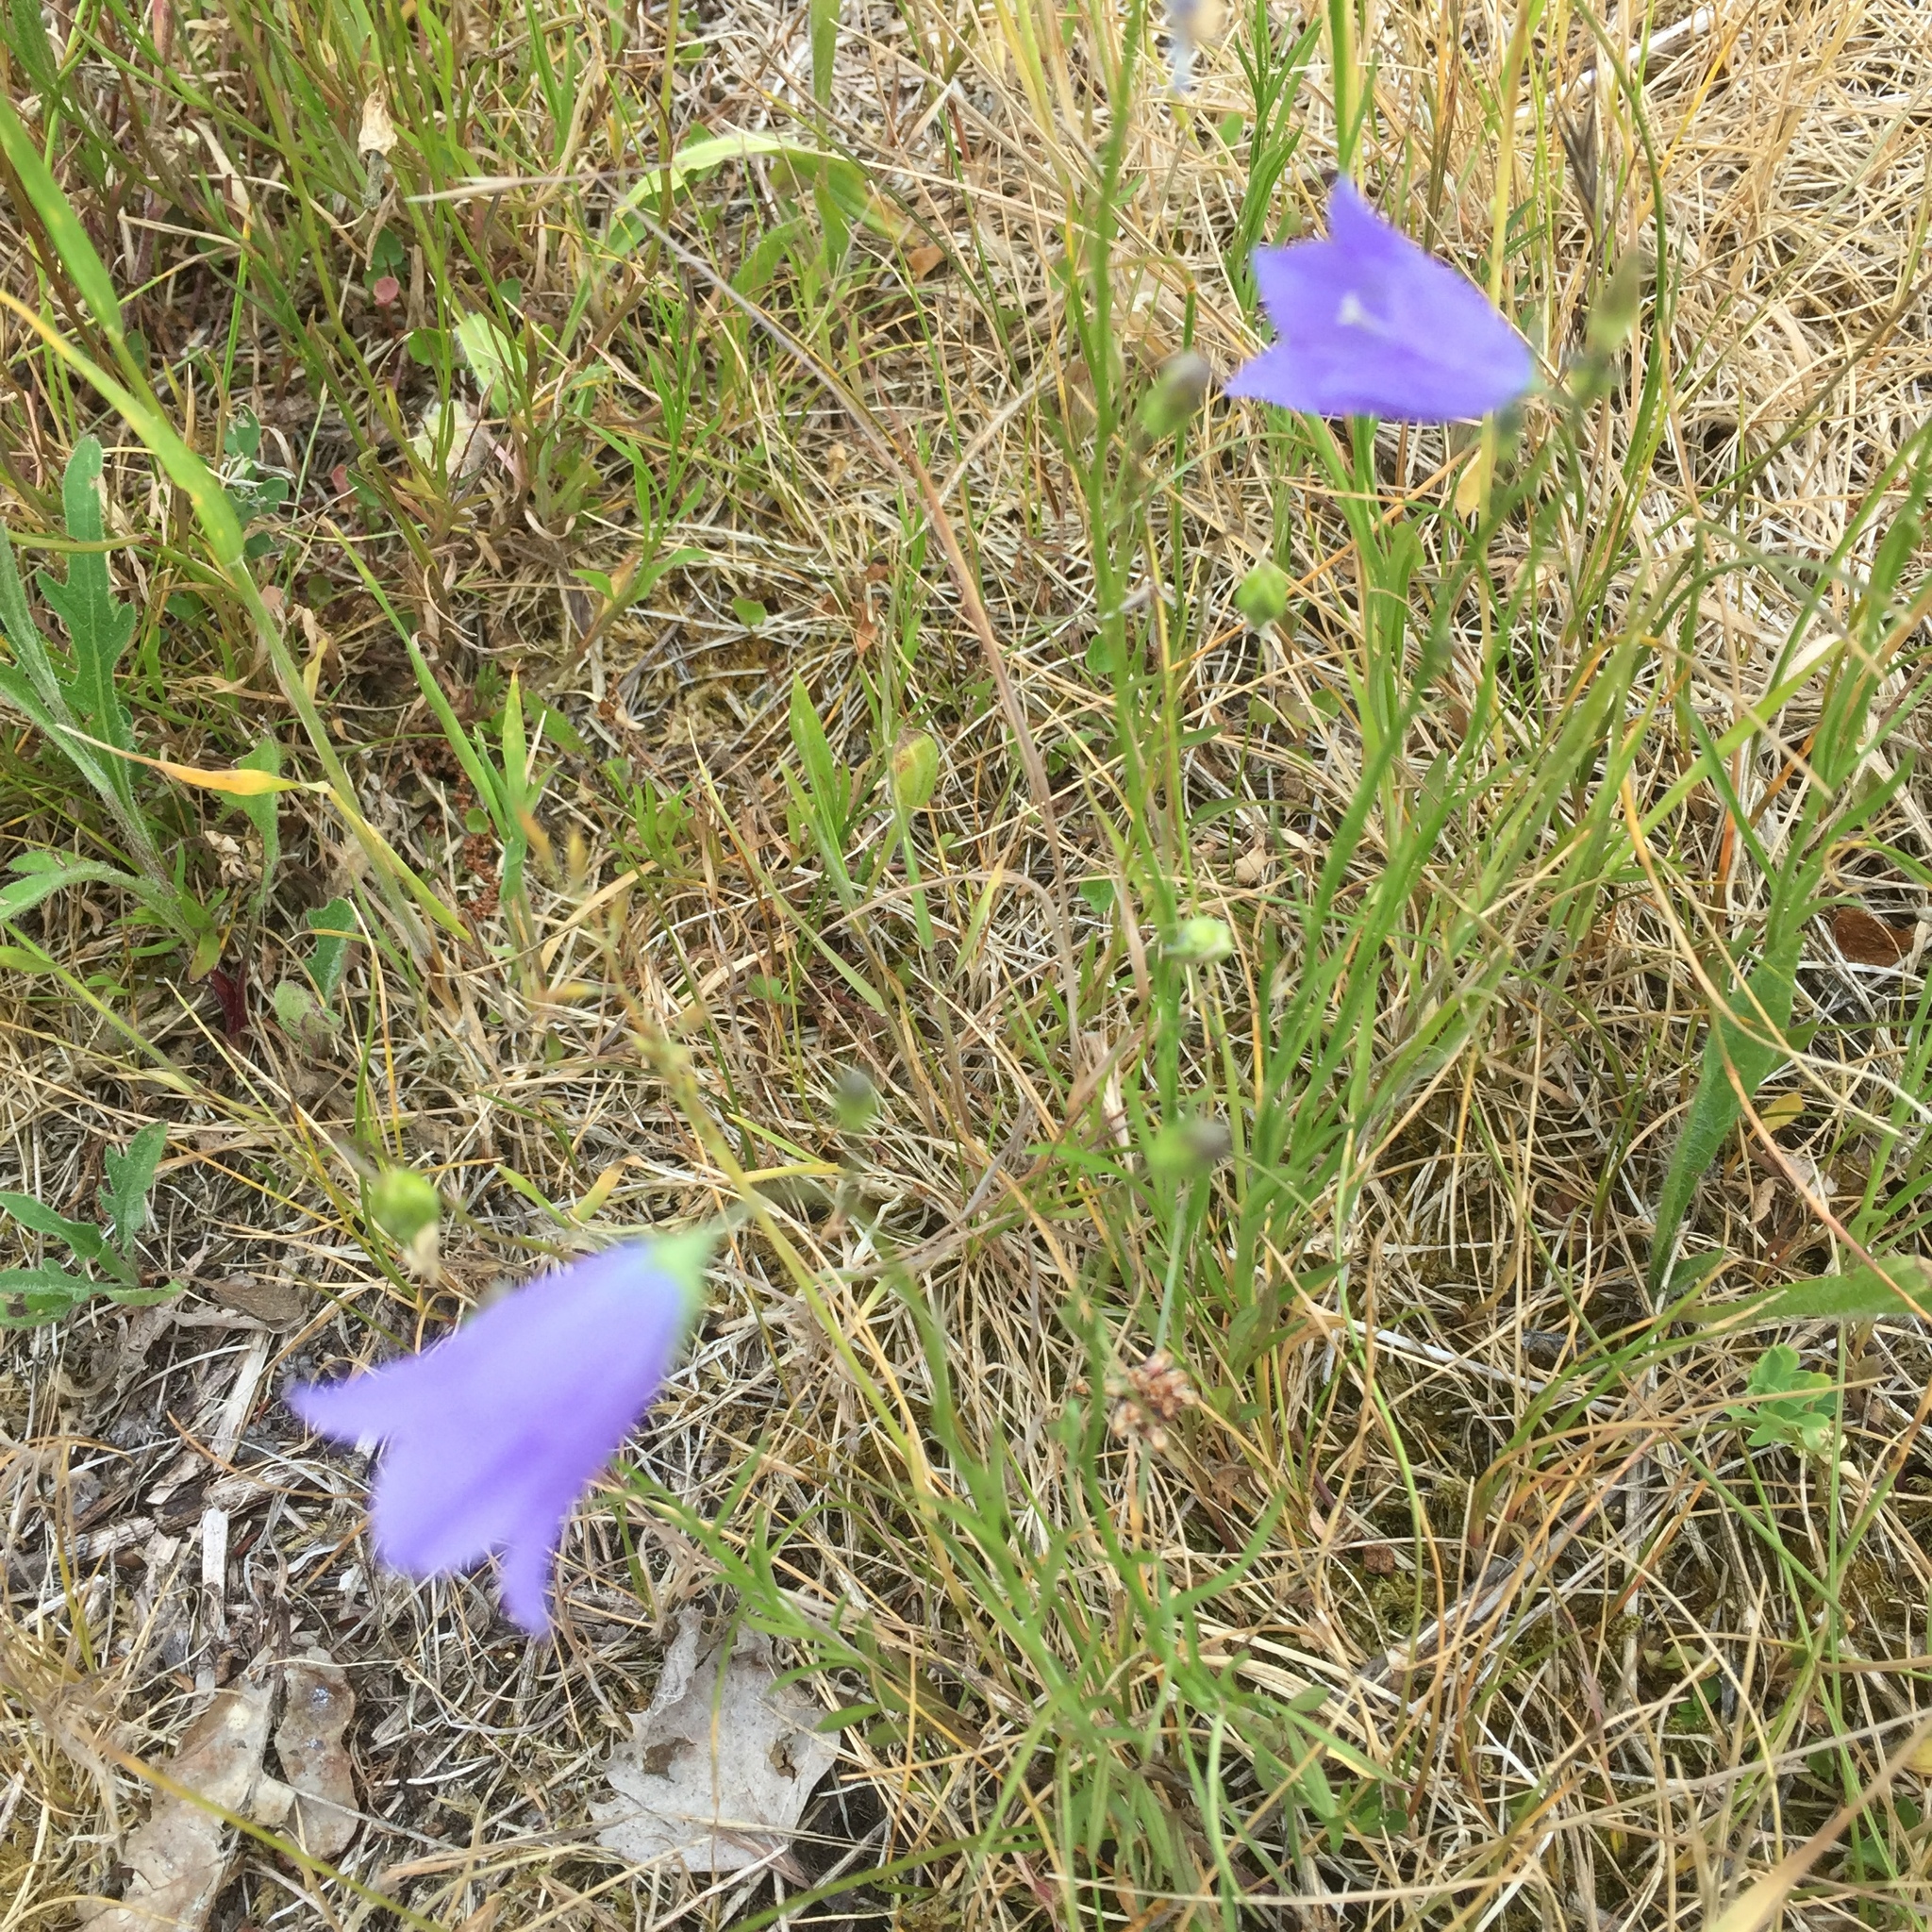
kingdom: Plantae
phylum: Tracheophyta
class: Magnoliopsida
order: Asterales
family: Campanulaceae
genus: Campanula
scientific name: Campanula rotundifolia
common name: Harebell
